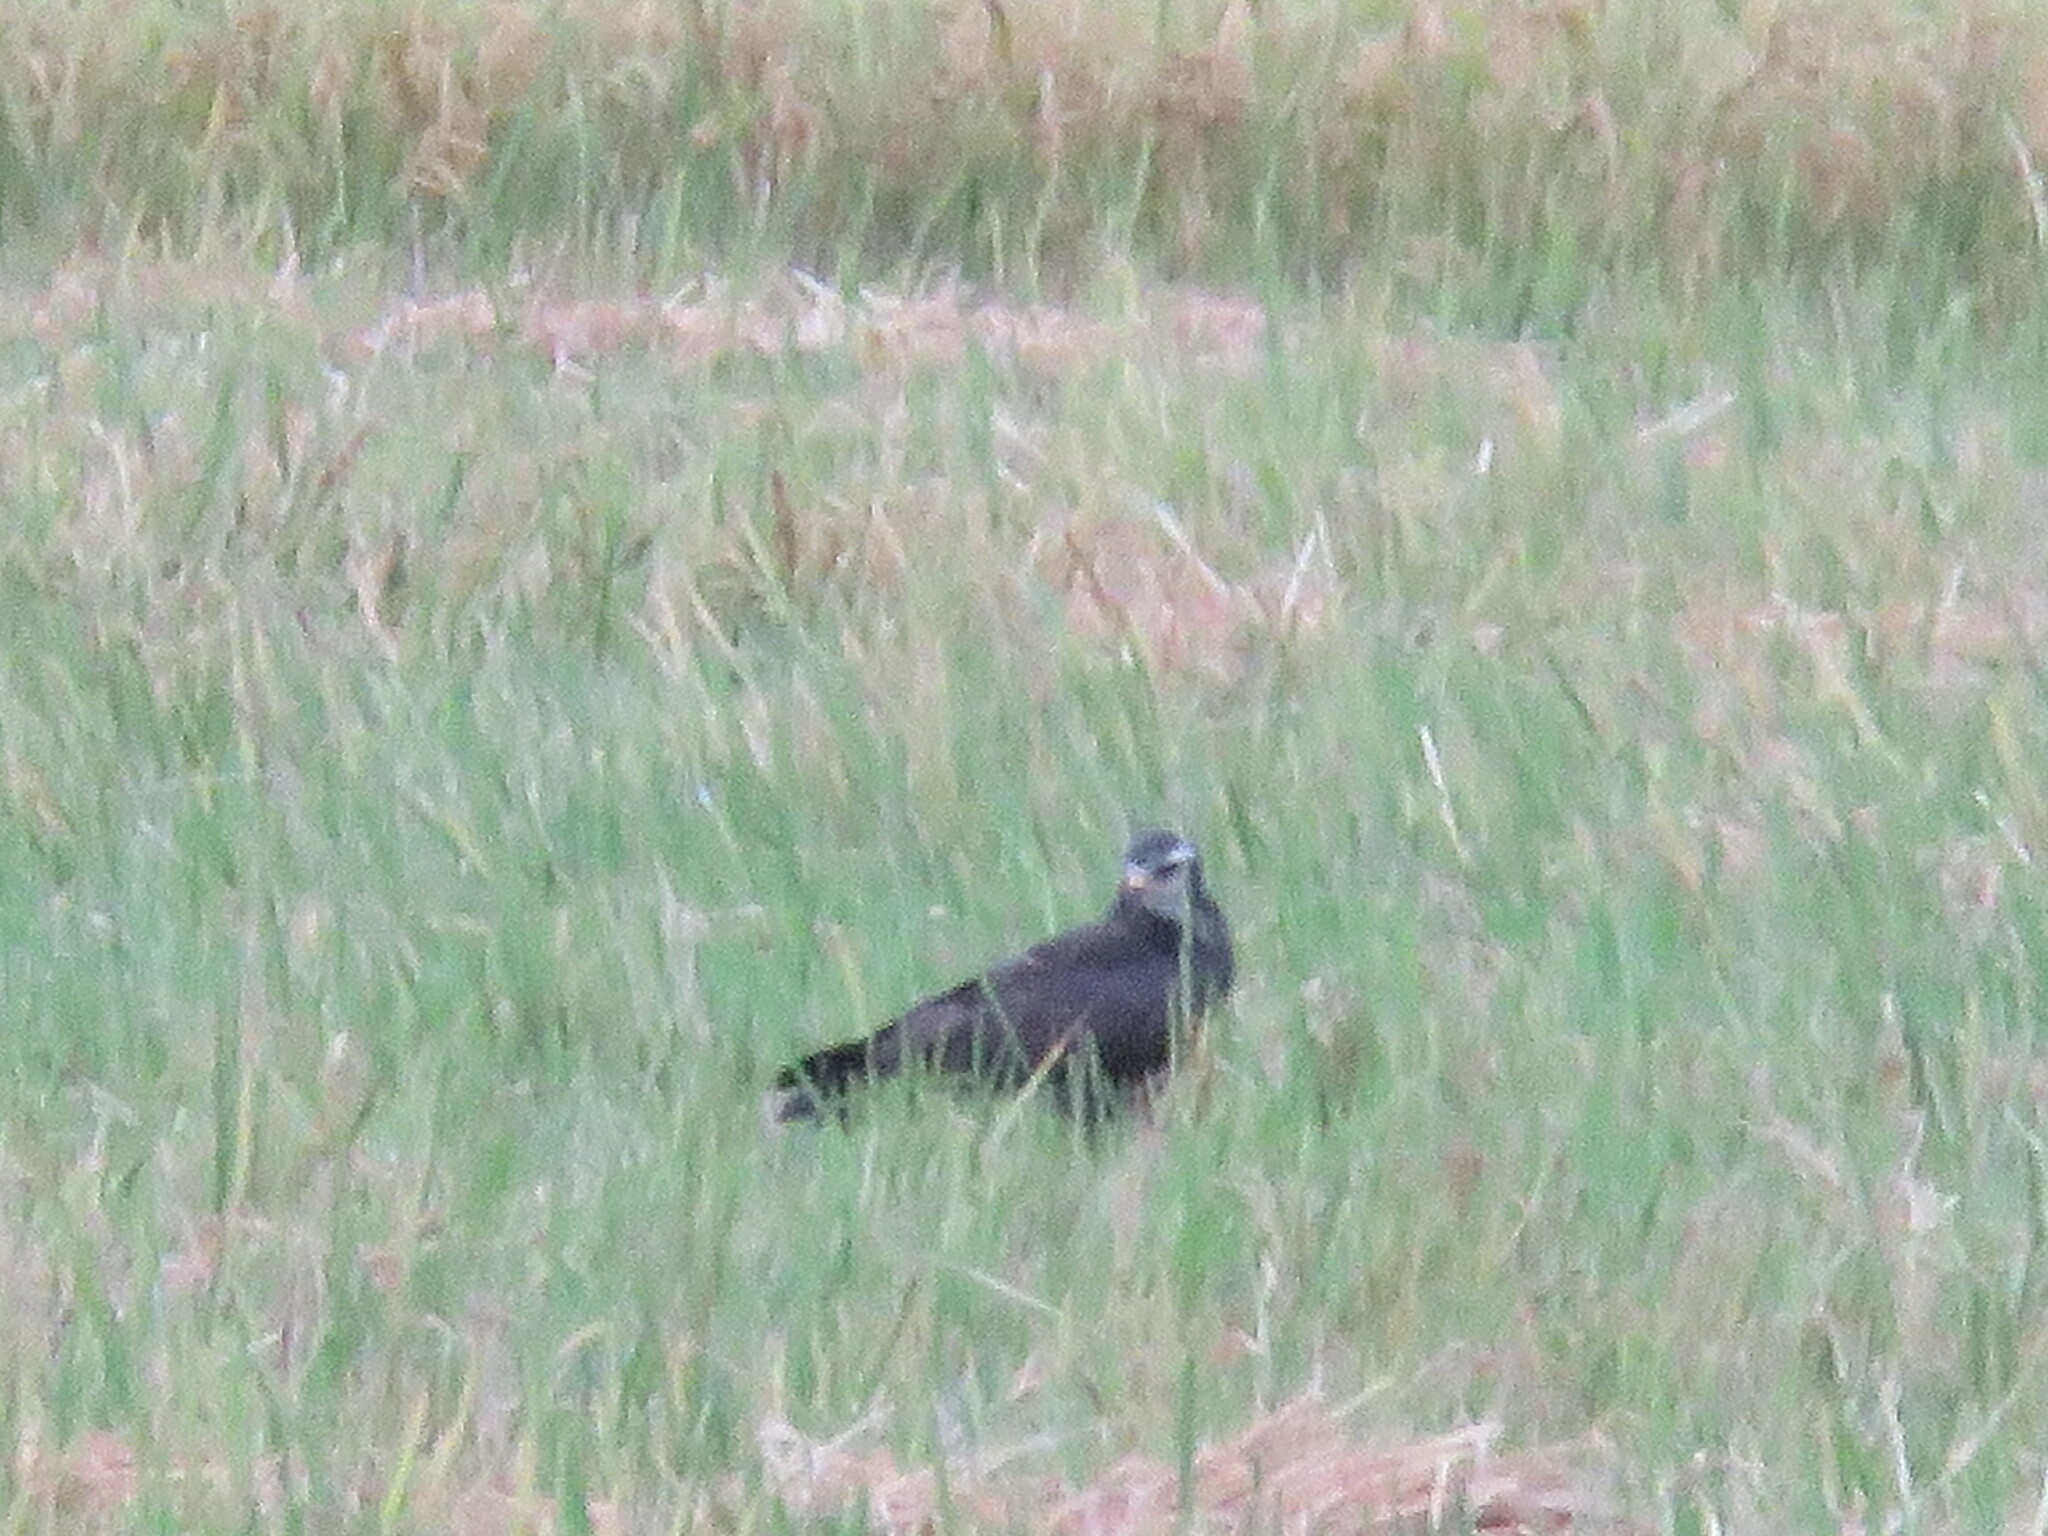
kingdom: Animalia
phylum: Chordata
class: Aves
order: Accipitriformes
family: Accipitridae
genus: Circus
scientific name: Circus buffoni
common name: Long-winged harrier
